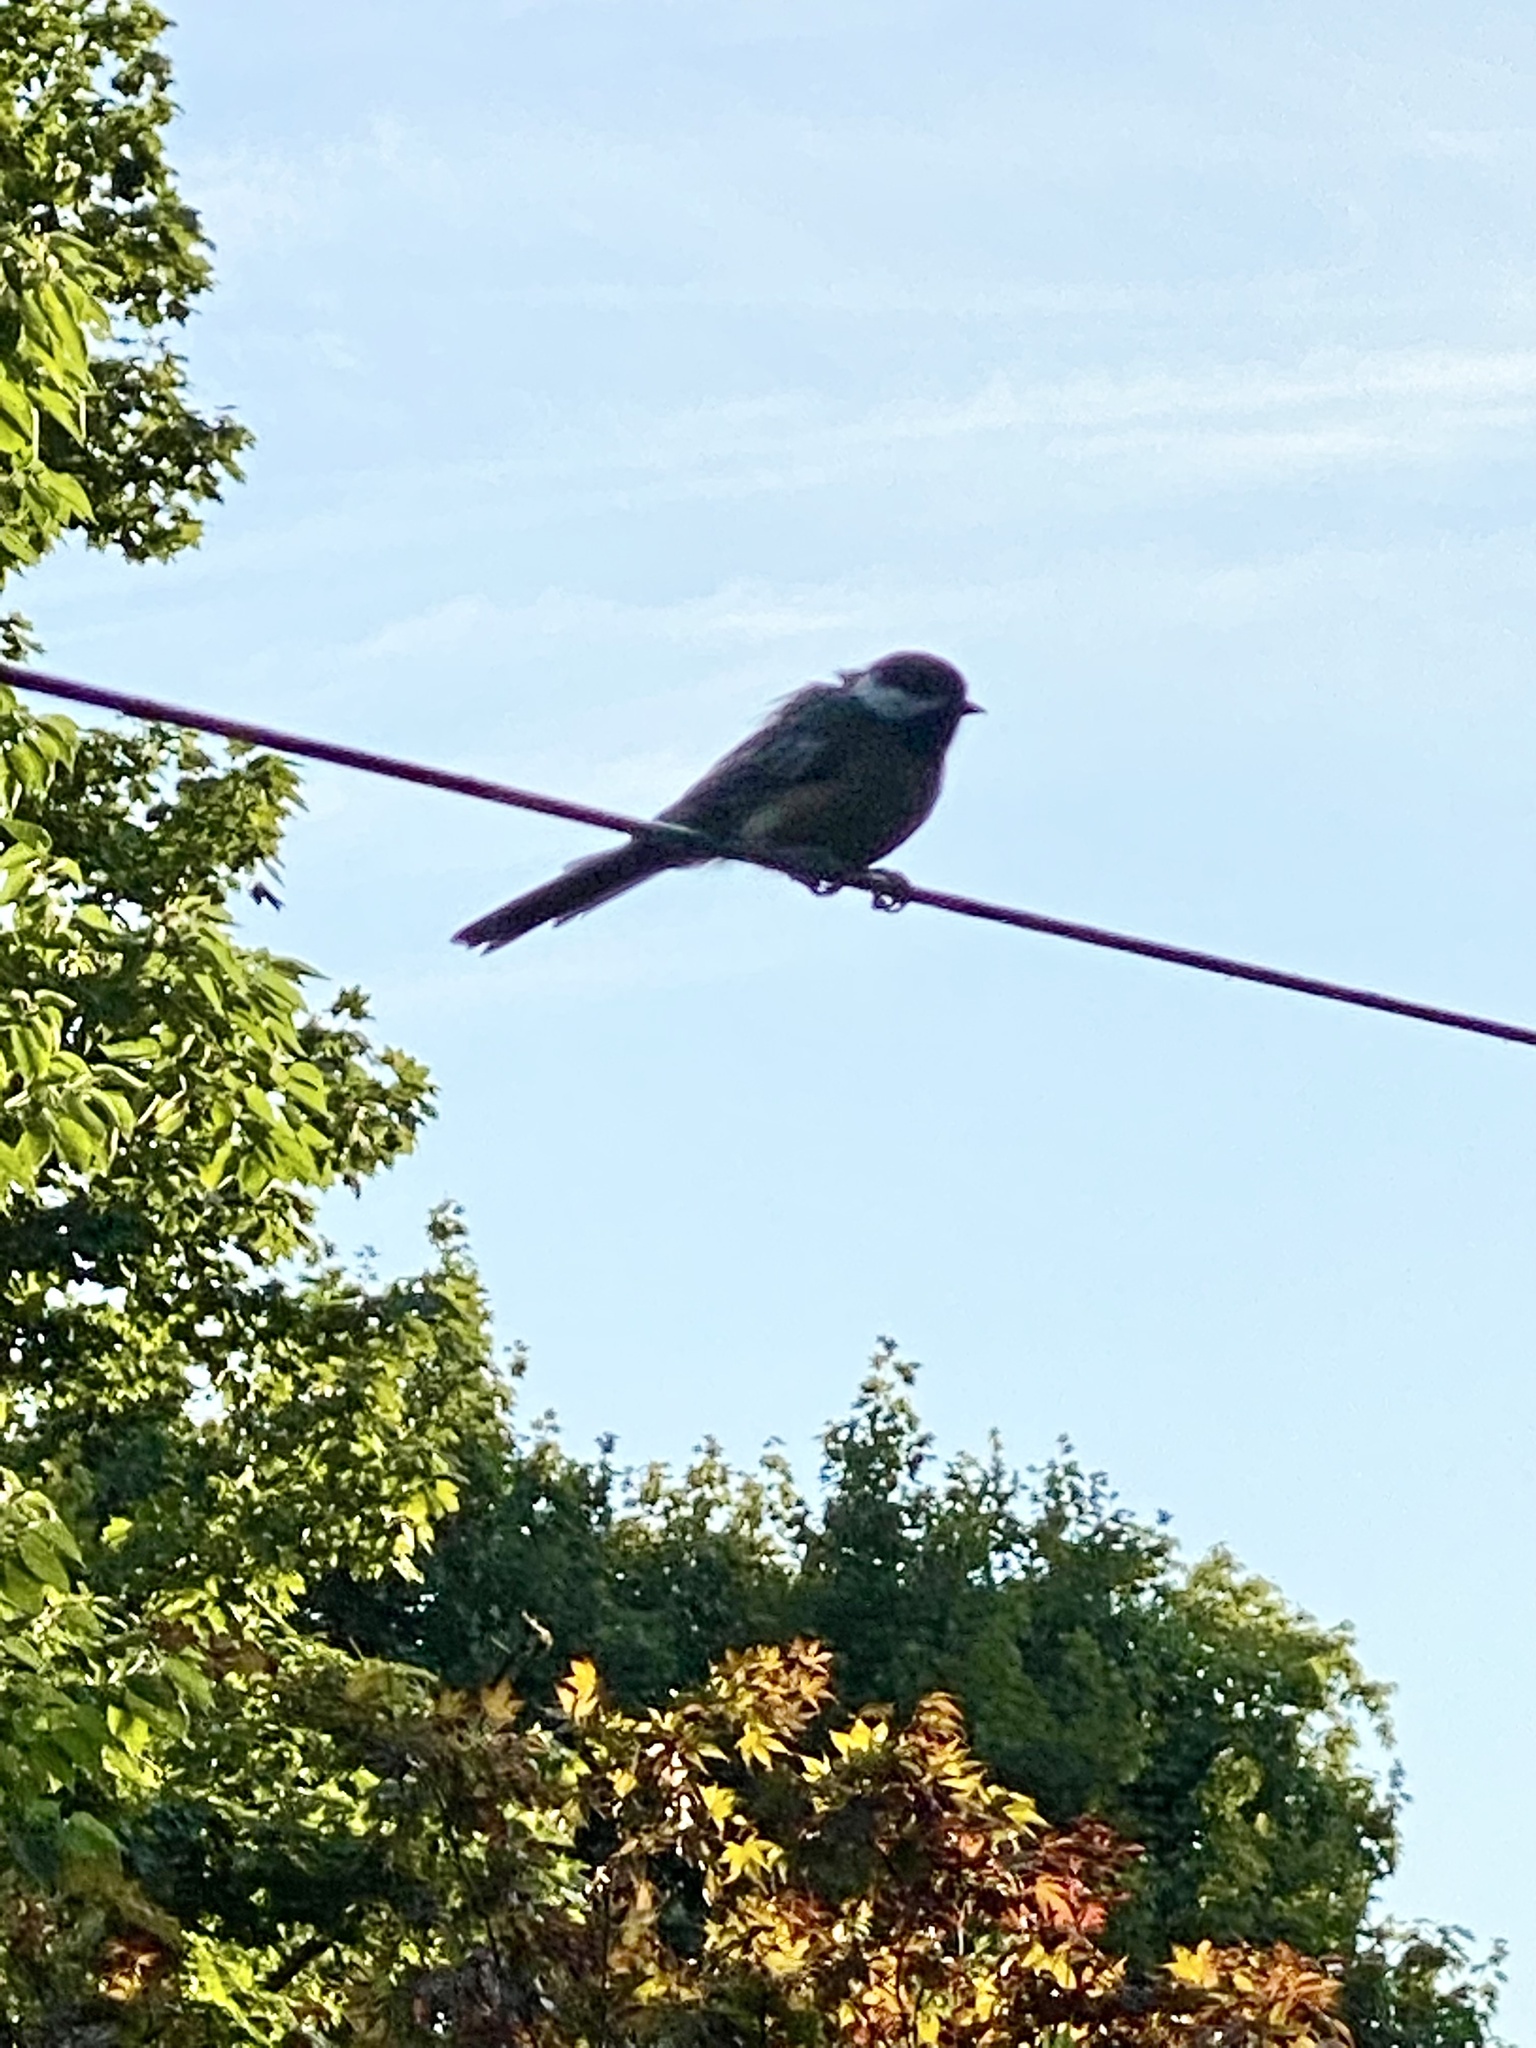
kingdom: Animalia
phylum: Chordata
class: Aves
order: Passeriformes
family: Paridae
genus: Poecile
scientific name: Poecile atricapillus
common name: Black-capped chickadee
